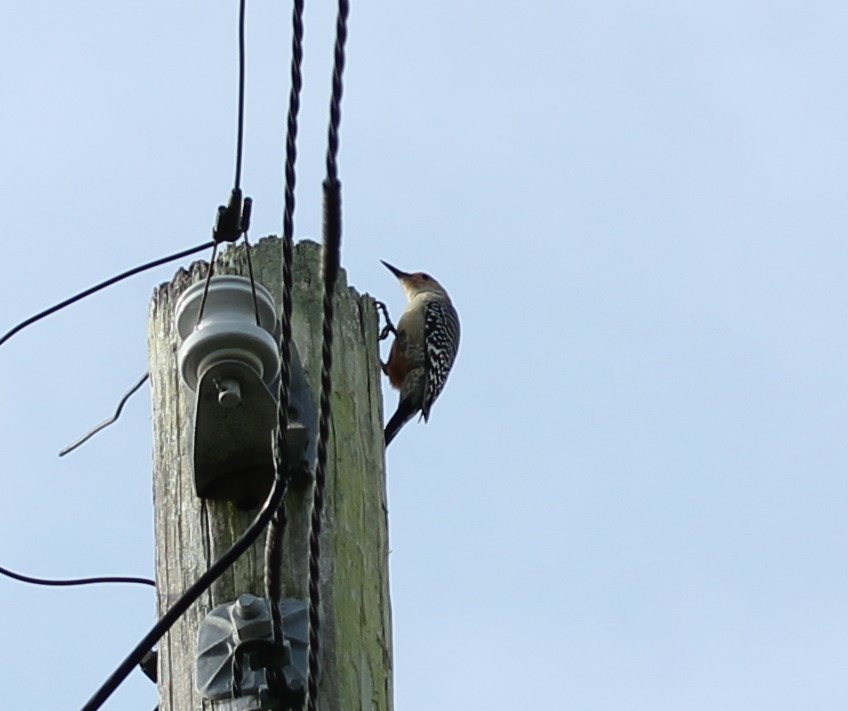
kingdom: Animalia
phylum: Chordata
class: Aves
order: Piciformes
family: Picidae
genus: Melanerpes
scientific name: Melanerpes carolinus
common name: Red-bellied woodpecker
